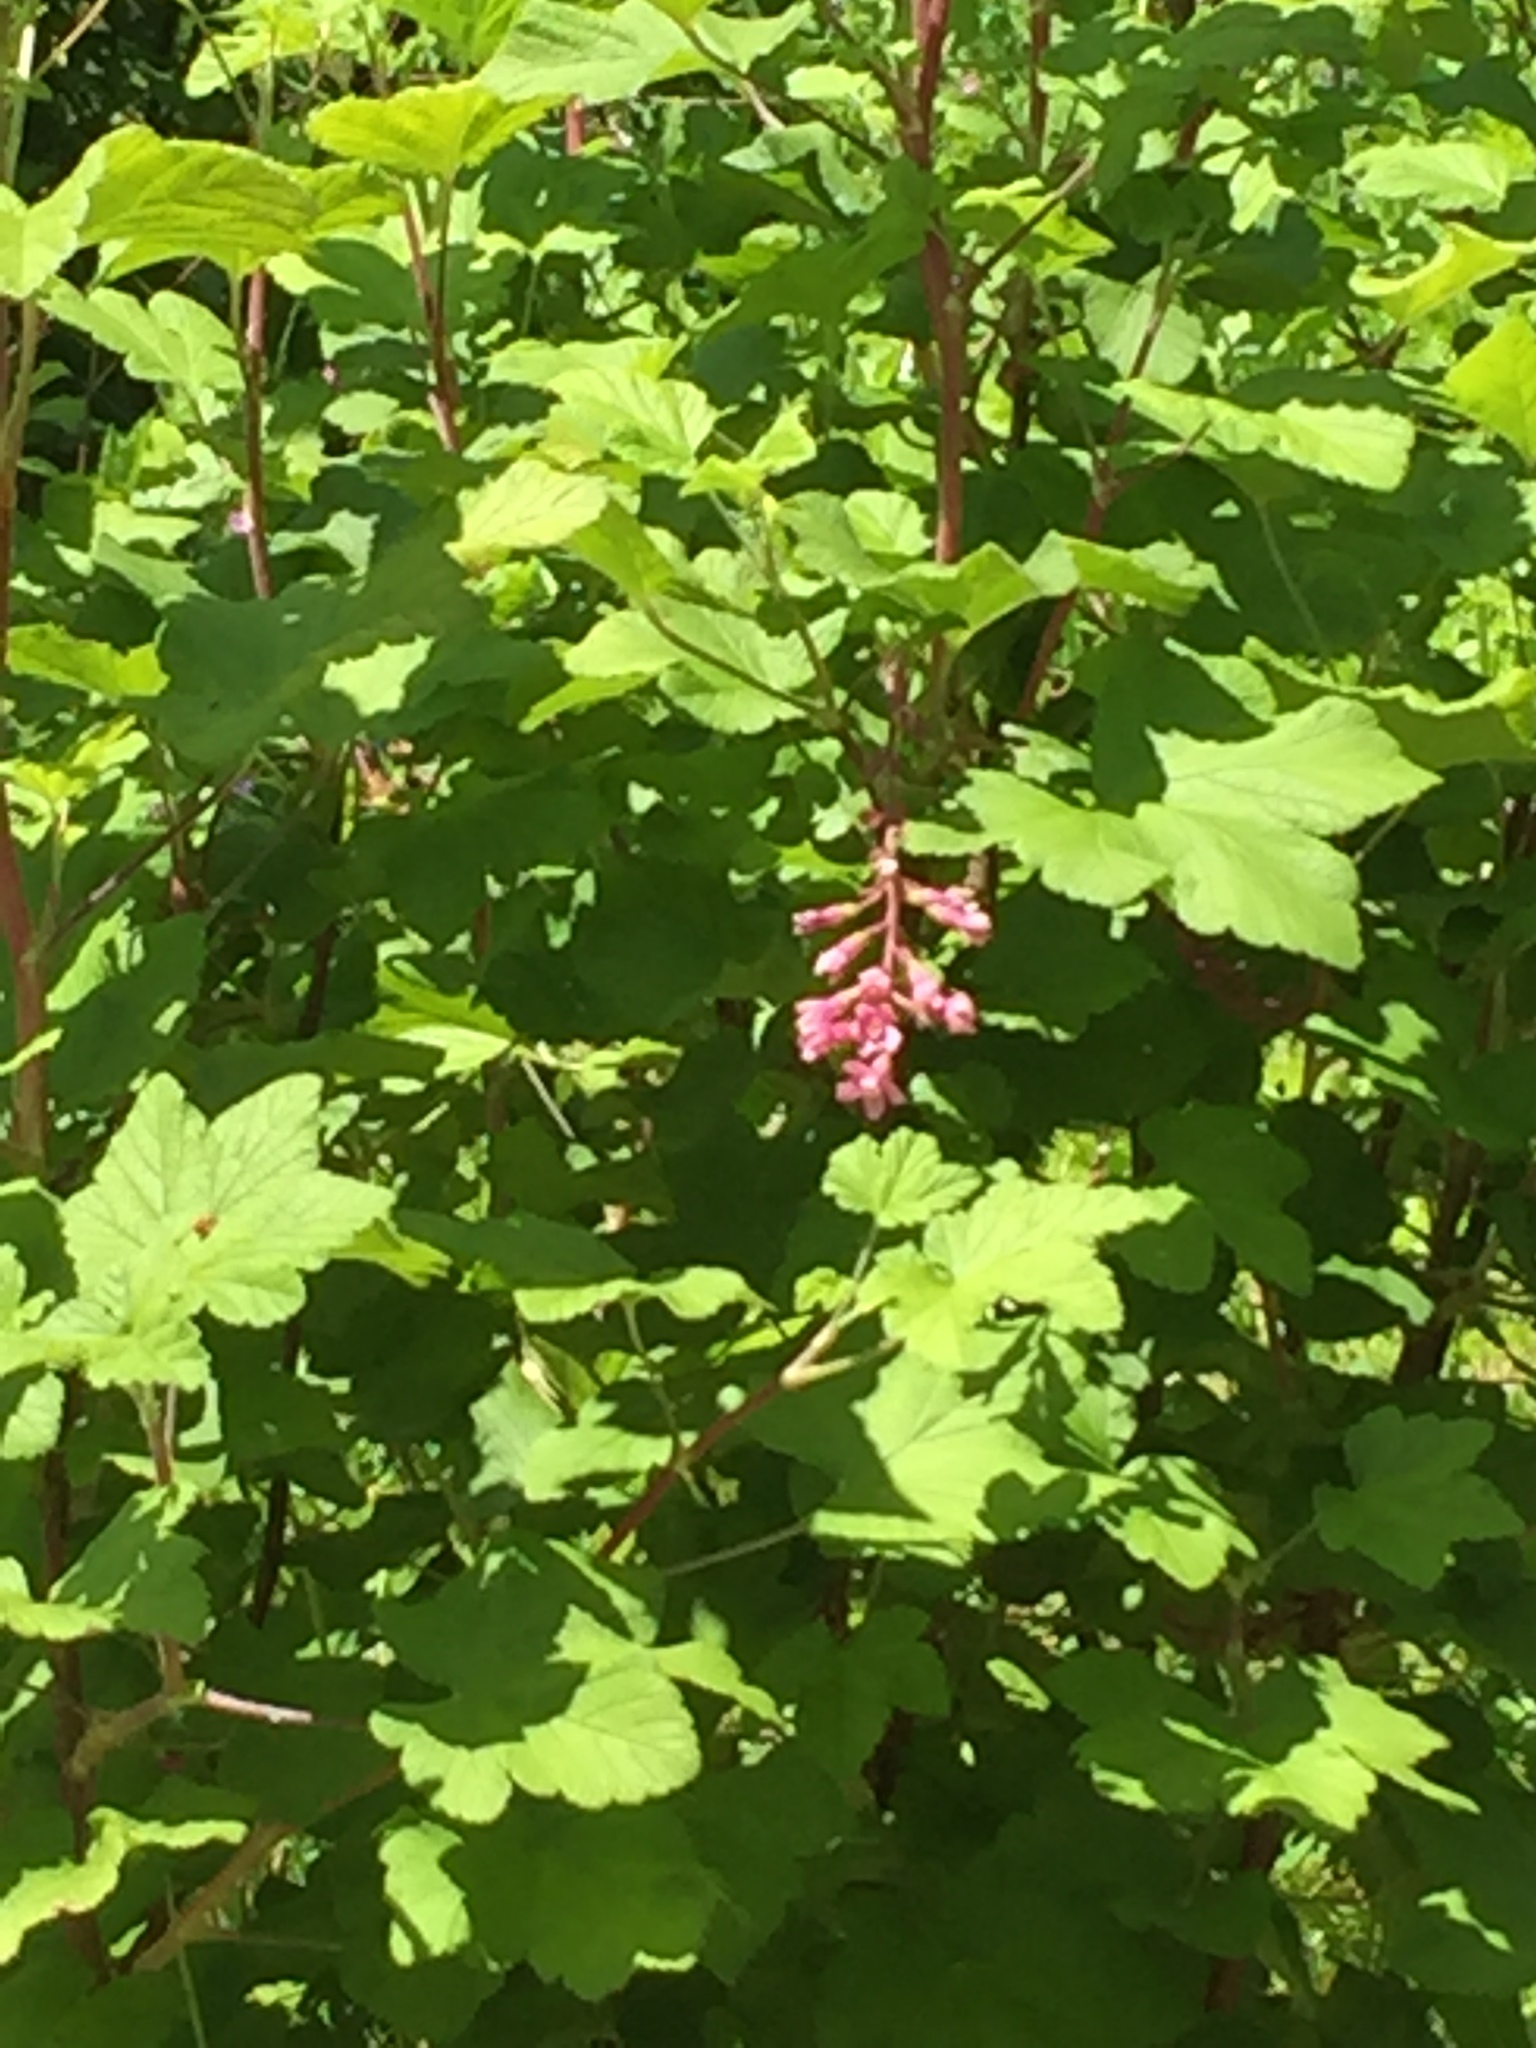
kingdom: Plantae
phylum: Tracheophyta
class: Magnoliopsida
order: Saxifragales
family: Grossulariaceae
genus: Ribes
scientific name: Ribes sanguineum
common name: Flowering currant
